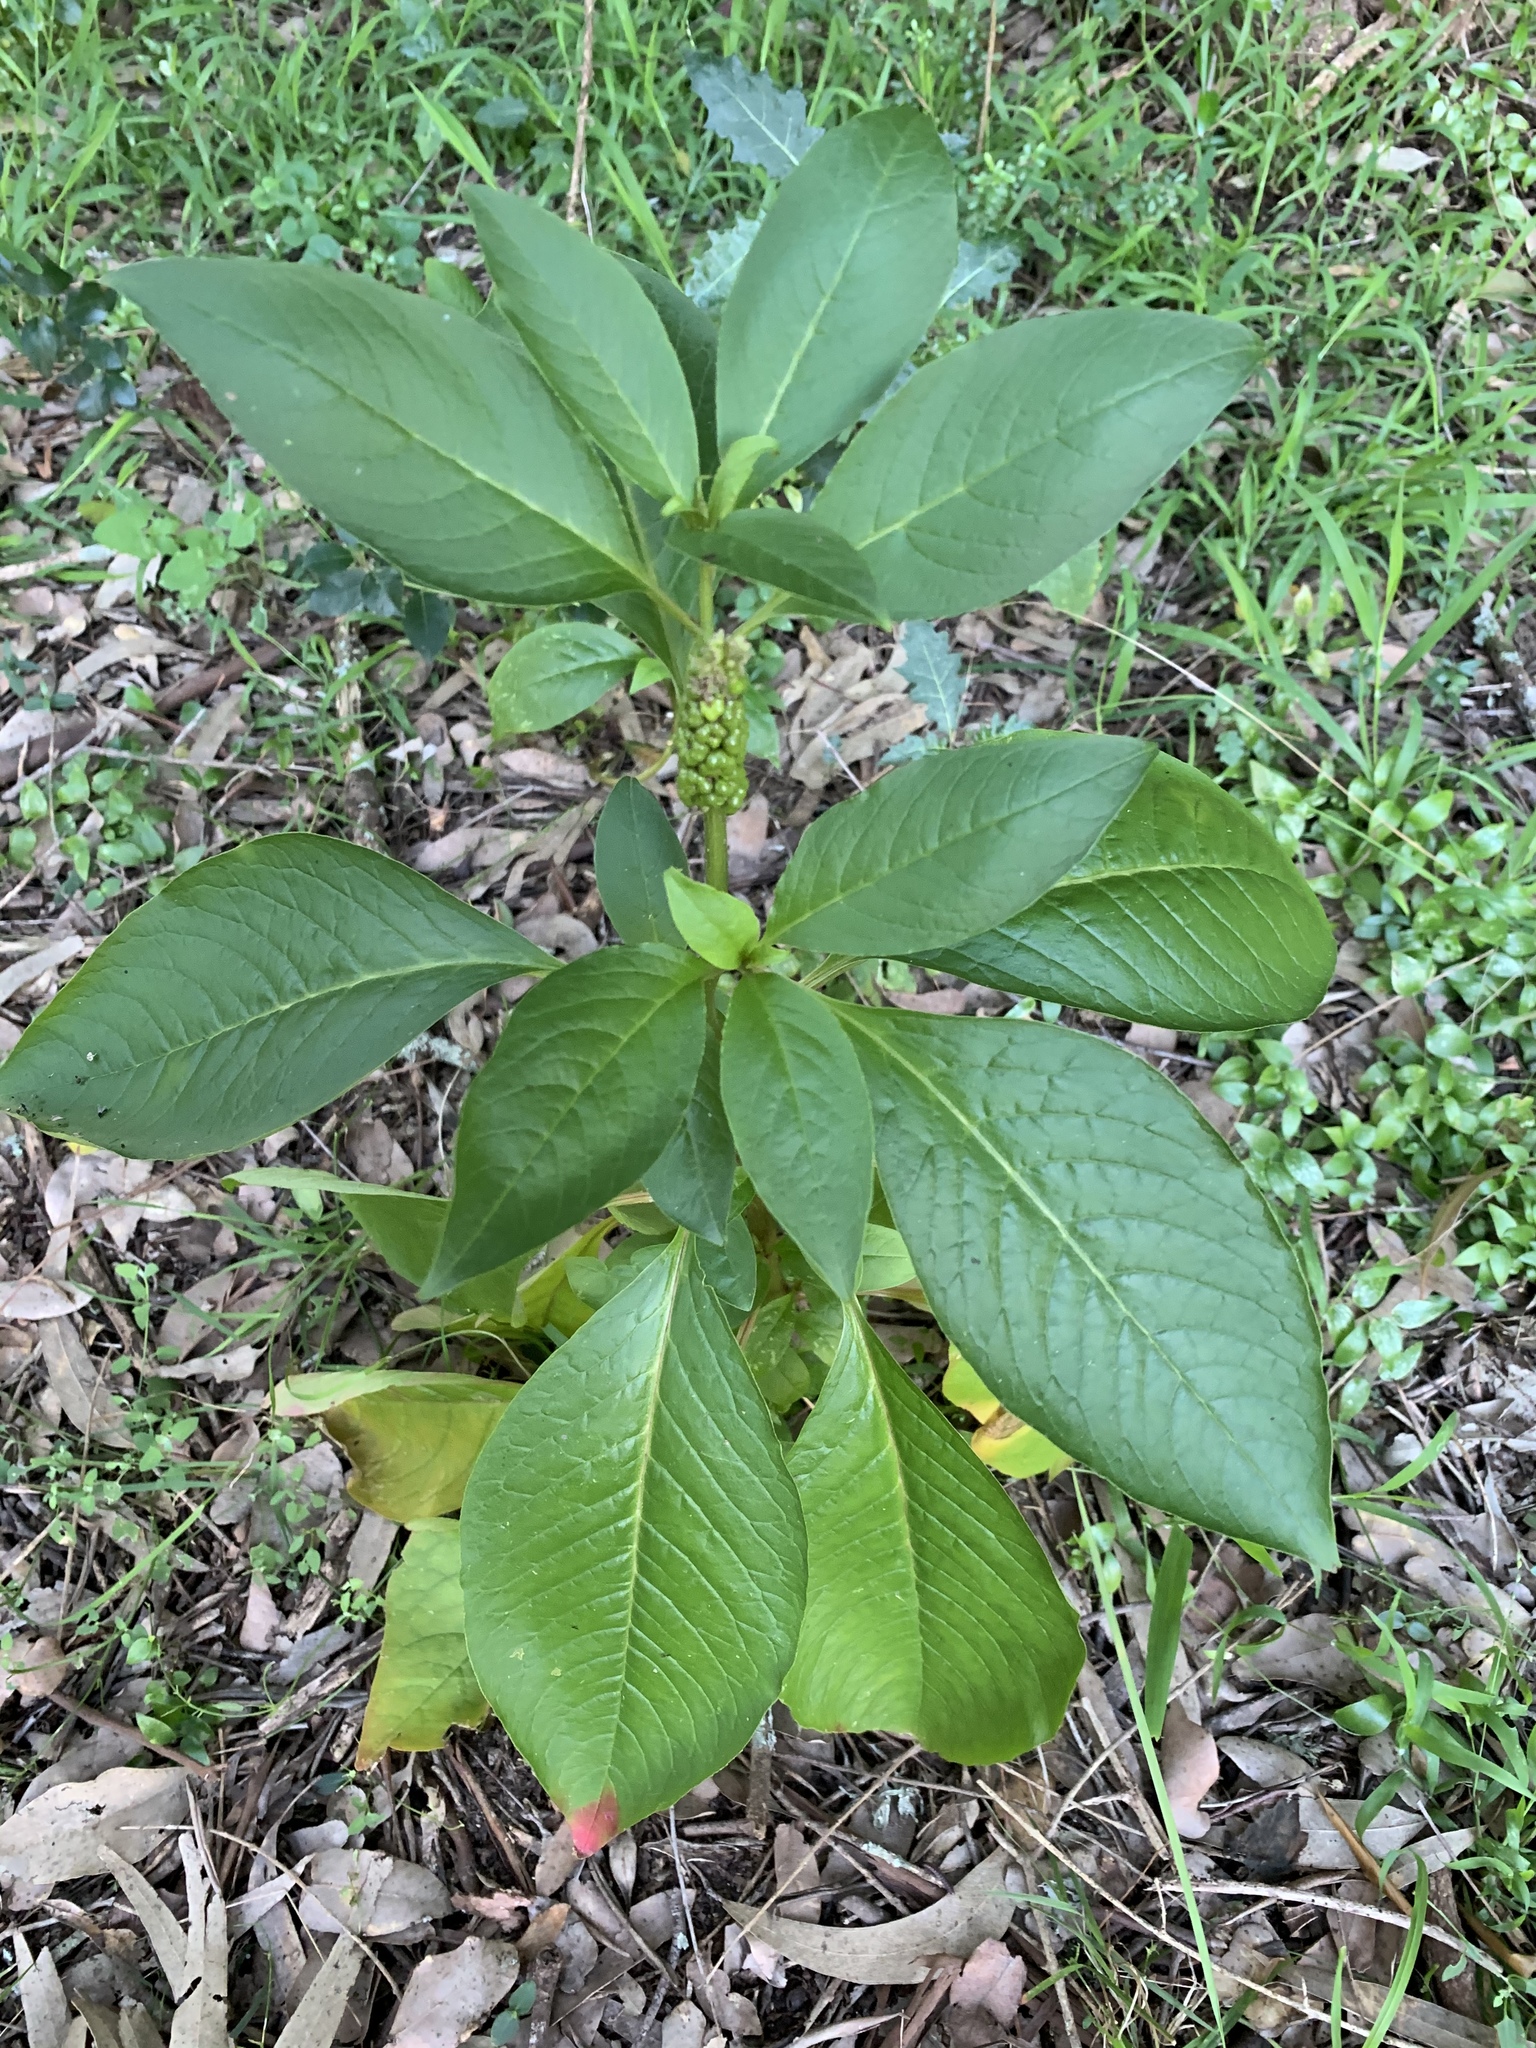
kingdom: Plantae
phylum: Tracheophyta
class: Magnoliopsida
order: Caryophyllales
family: Phytolaccaceae
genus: Phytolacca
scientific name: Phytolacca icosandra
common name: Button pokeweed
